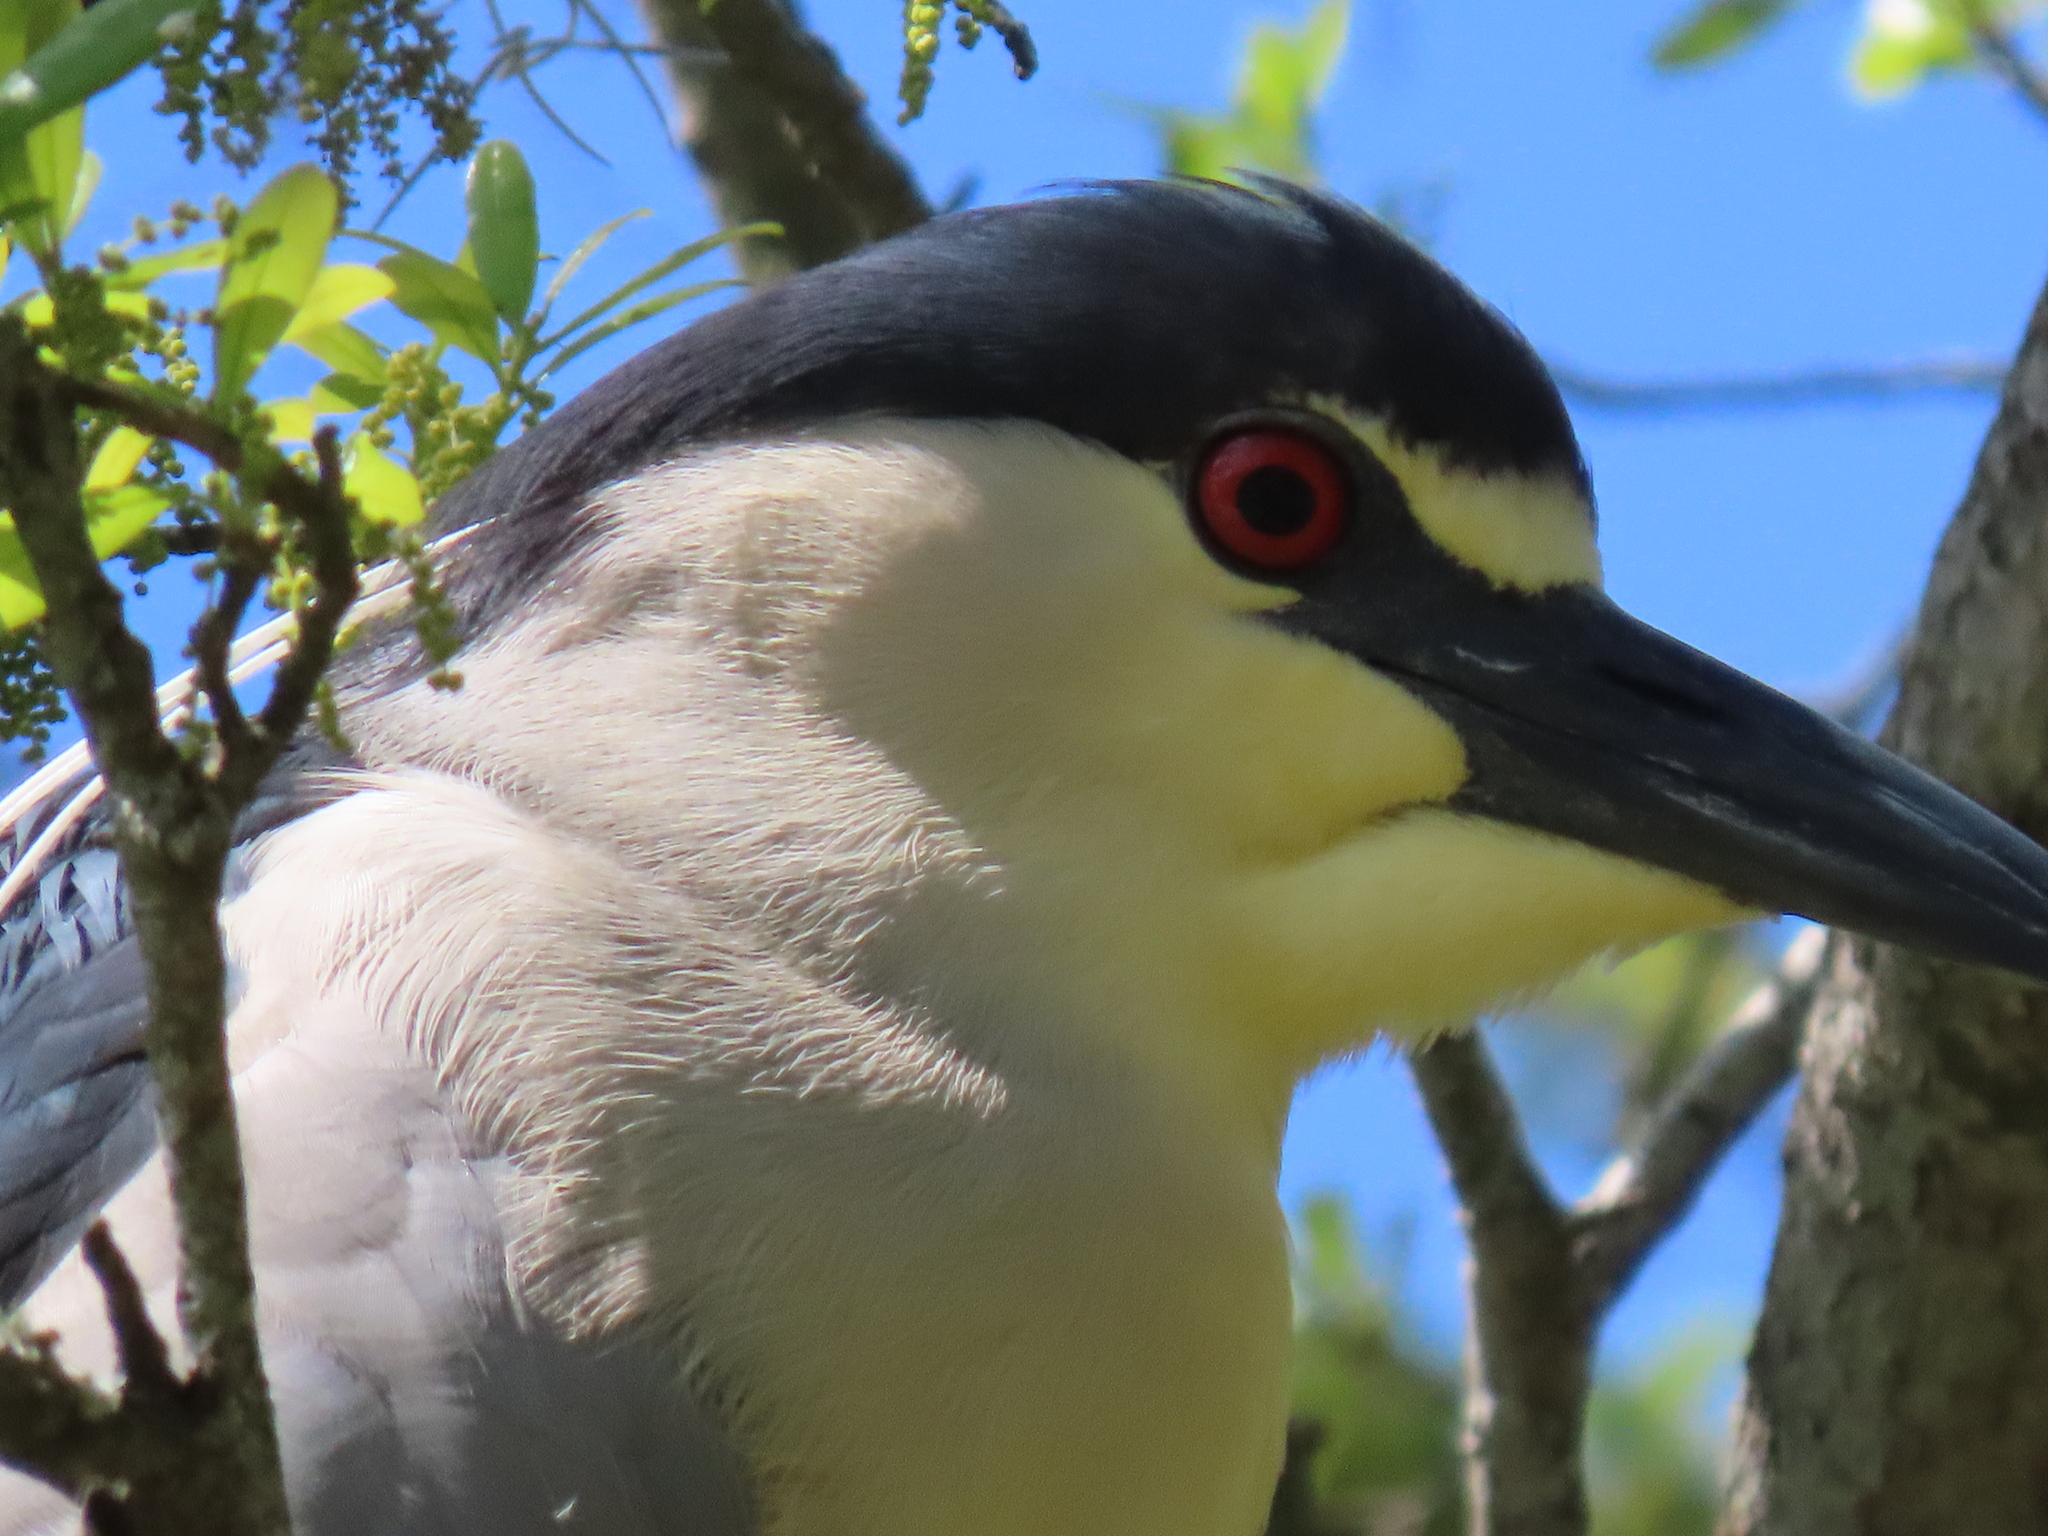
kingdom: Animalia
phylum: Chordata
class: Aves
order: Pelecaniformes
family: Ardeidae
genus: Nycticorax
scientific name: Nycticorax nycticorax
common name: Black-crowned night heron
